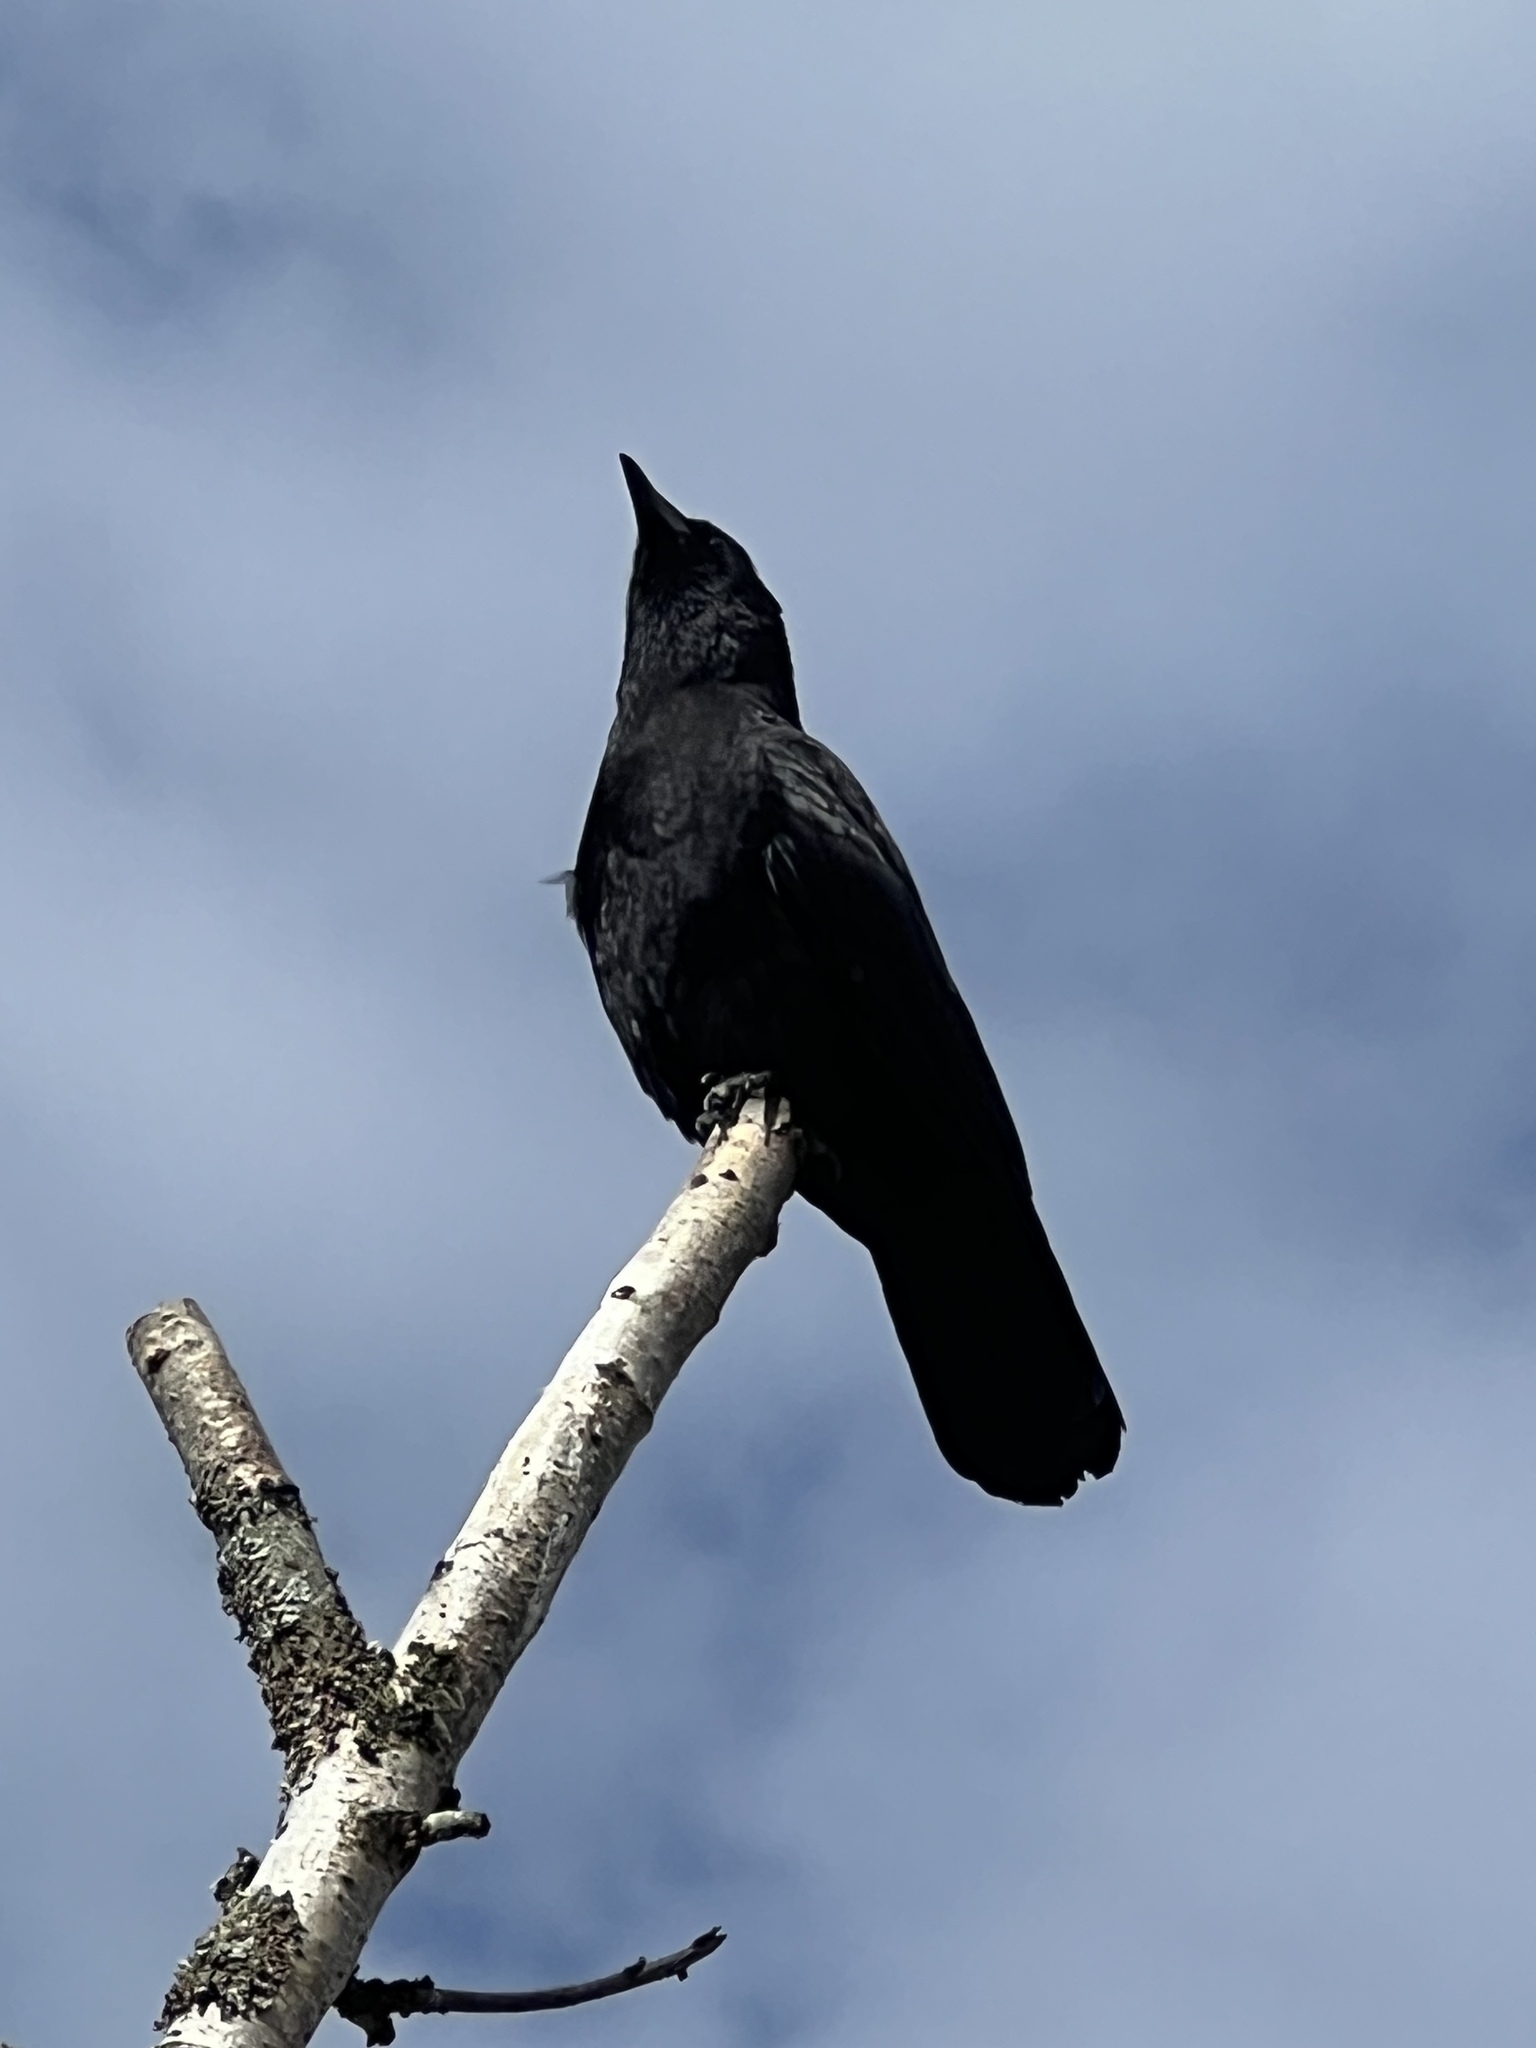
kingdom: Animalia
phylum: Chordata
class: Aves
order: Passeriformes
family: Corvidae
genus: Corvus
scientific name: Corvus brachyrhynchos
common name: American crow
